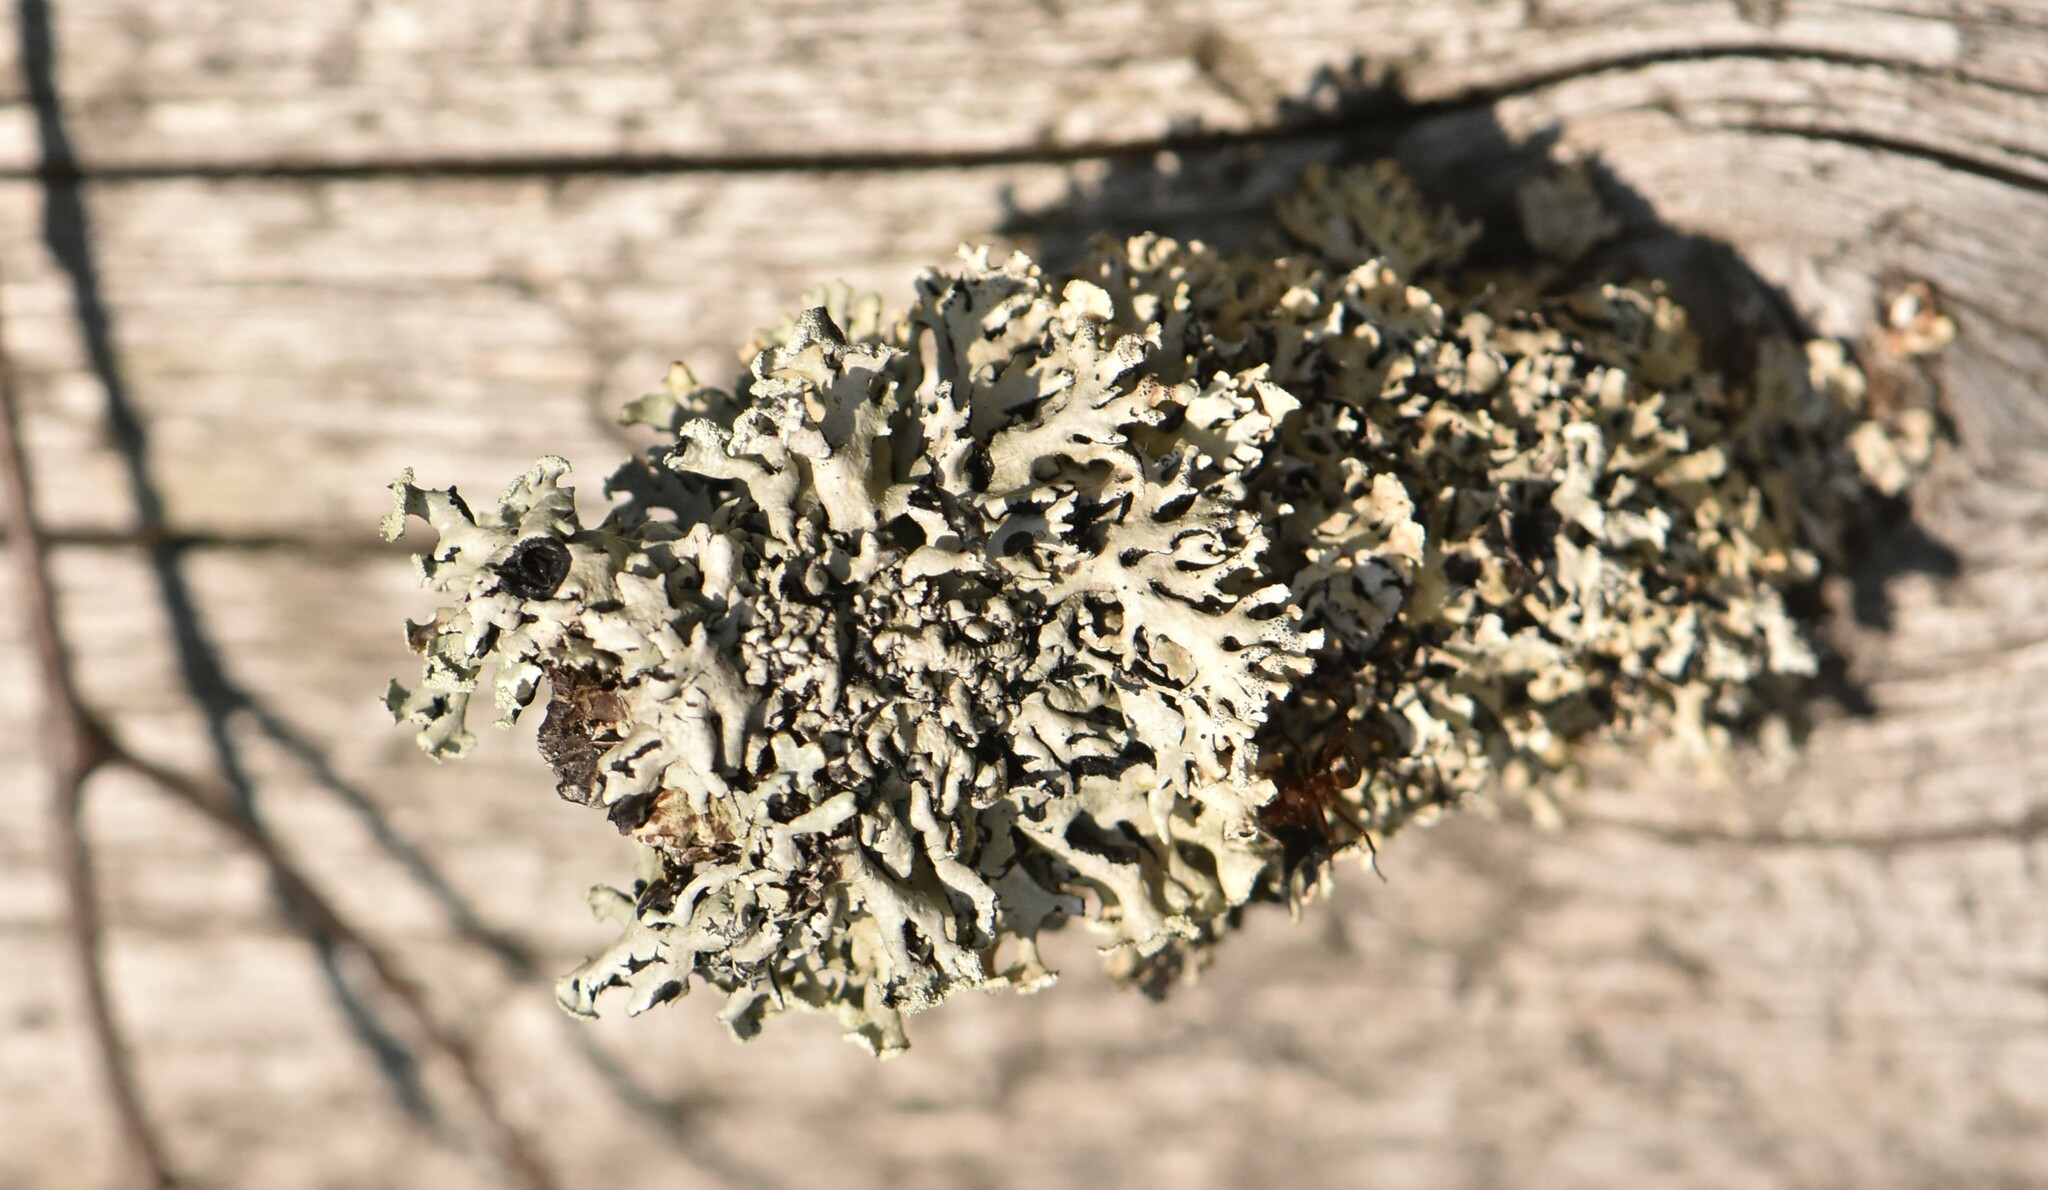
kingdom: Fungi
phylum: Ascomycota
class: Lecanoromycetes
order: Lecanorales
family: Parmeliaceae
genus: Hypogymnia
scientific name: Hypogymnia physodes
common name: Dark crottle
